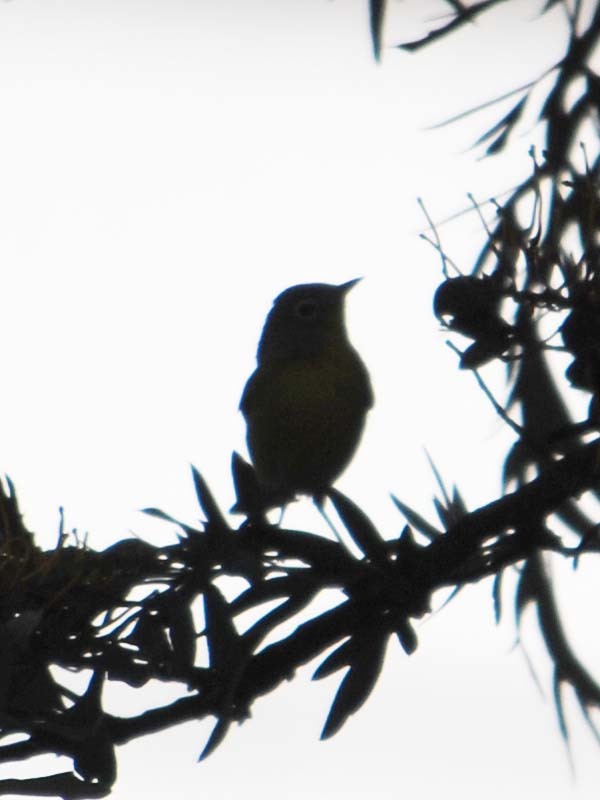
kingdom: Animalia
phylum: Chordata
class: Aves
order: Passeriformes
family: Parulidae
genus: Leiothlypis
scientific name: Leiothlypis ruficapilla
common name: Nashville warbler
